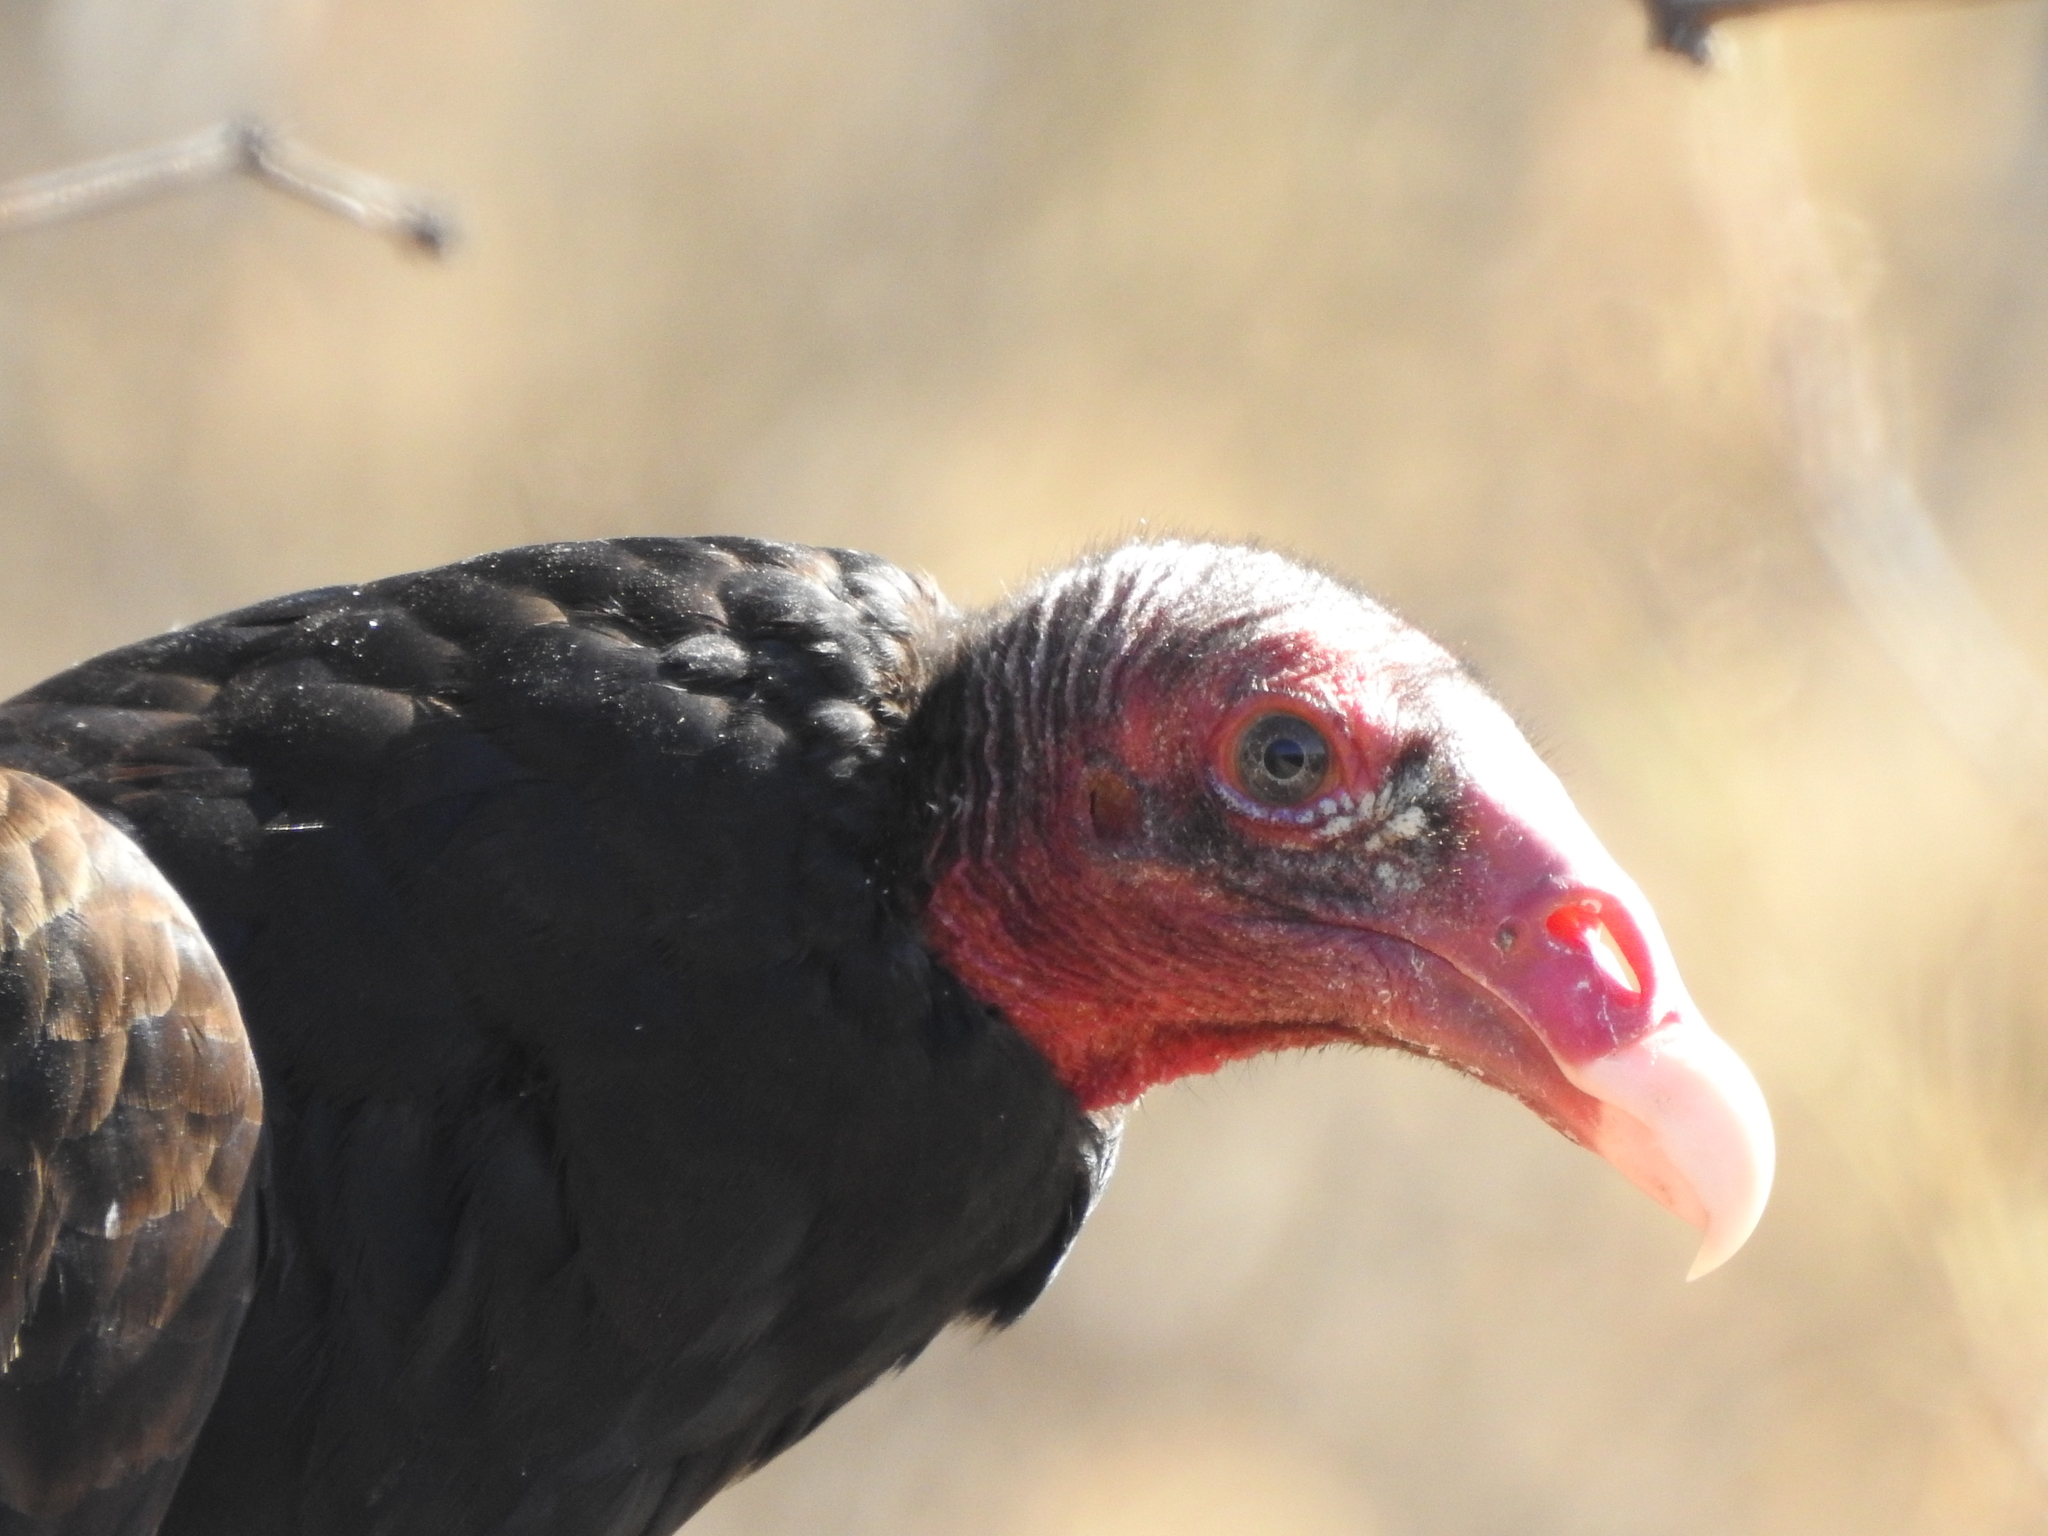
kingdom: Animalia
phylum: Chordata
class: Aves
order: Accipitriformes
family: Cathartidae
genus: Cathartes
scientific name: Cathartes aura
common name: Turkey vulture
